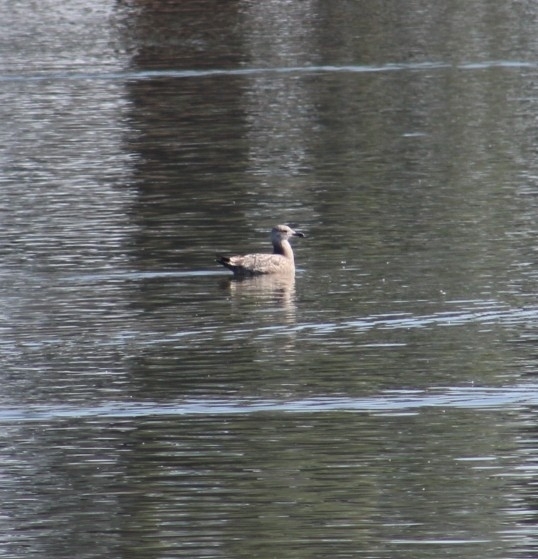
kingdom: Animalia
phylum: Chordata
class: Aves
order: Charadriiformes
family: Laridae
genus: Larus
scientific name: Larus californicus
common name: California gull
